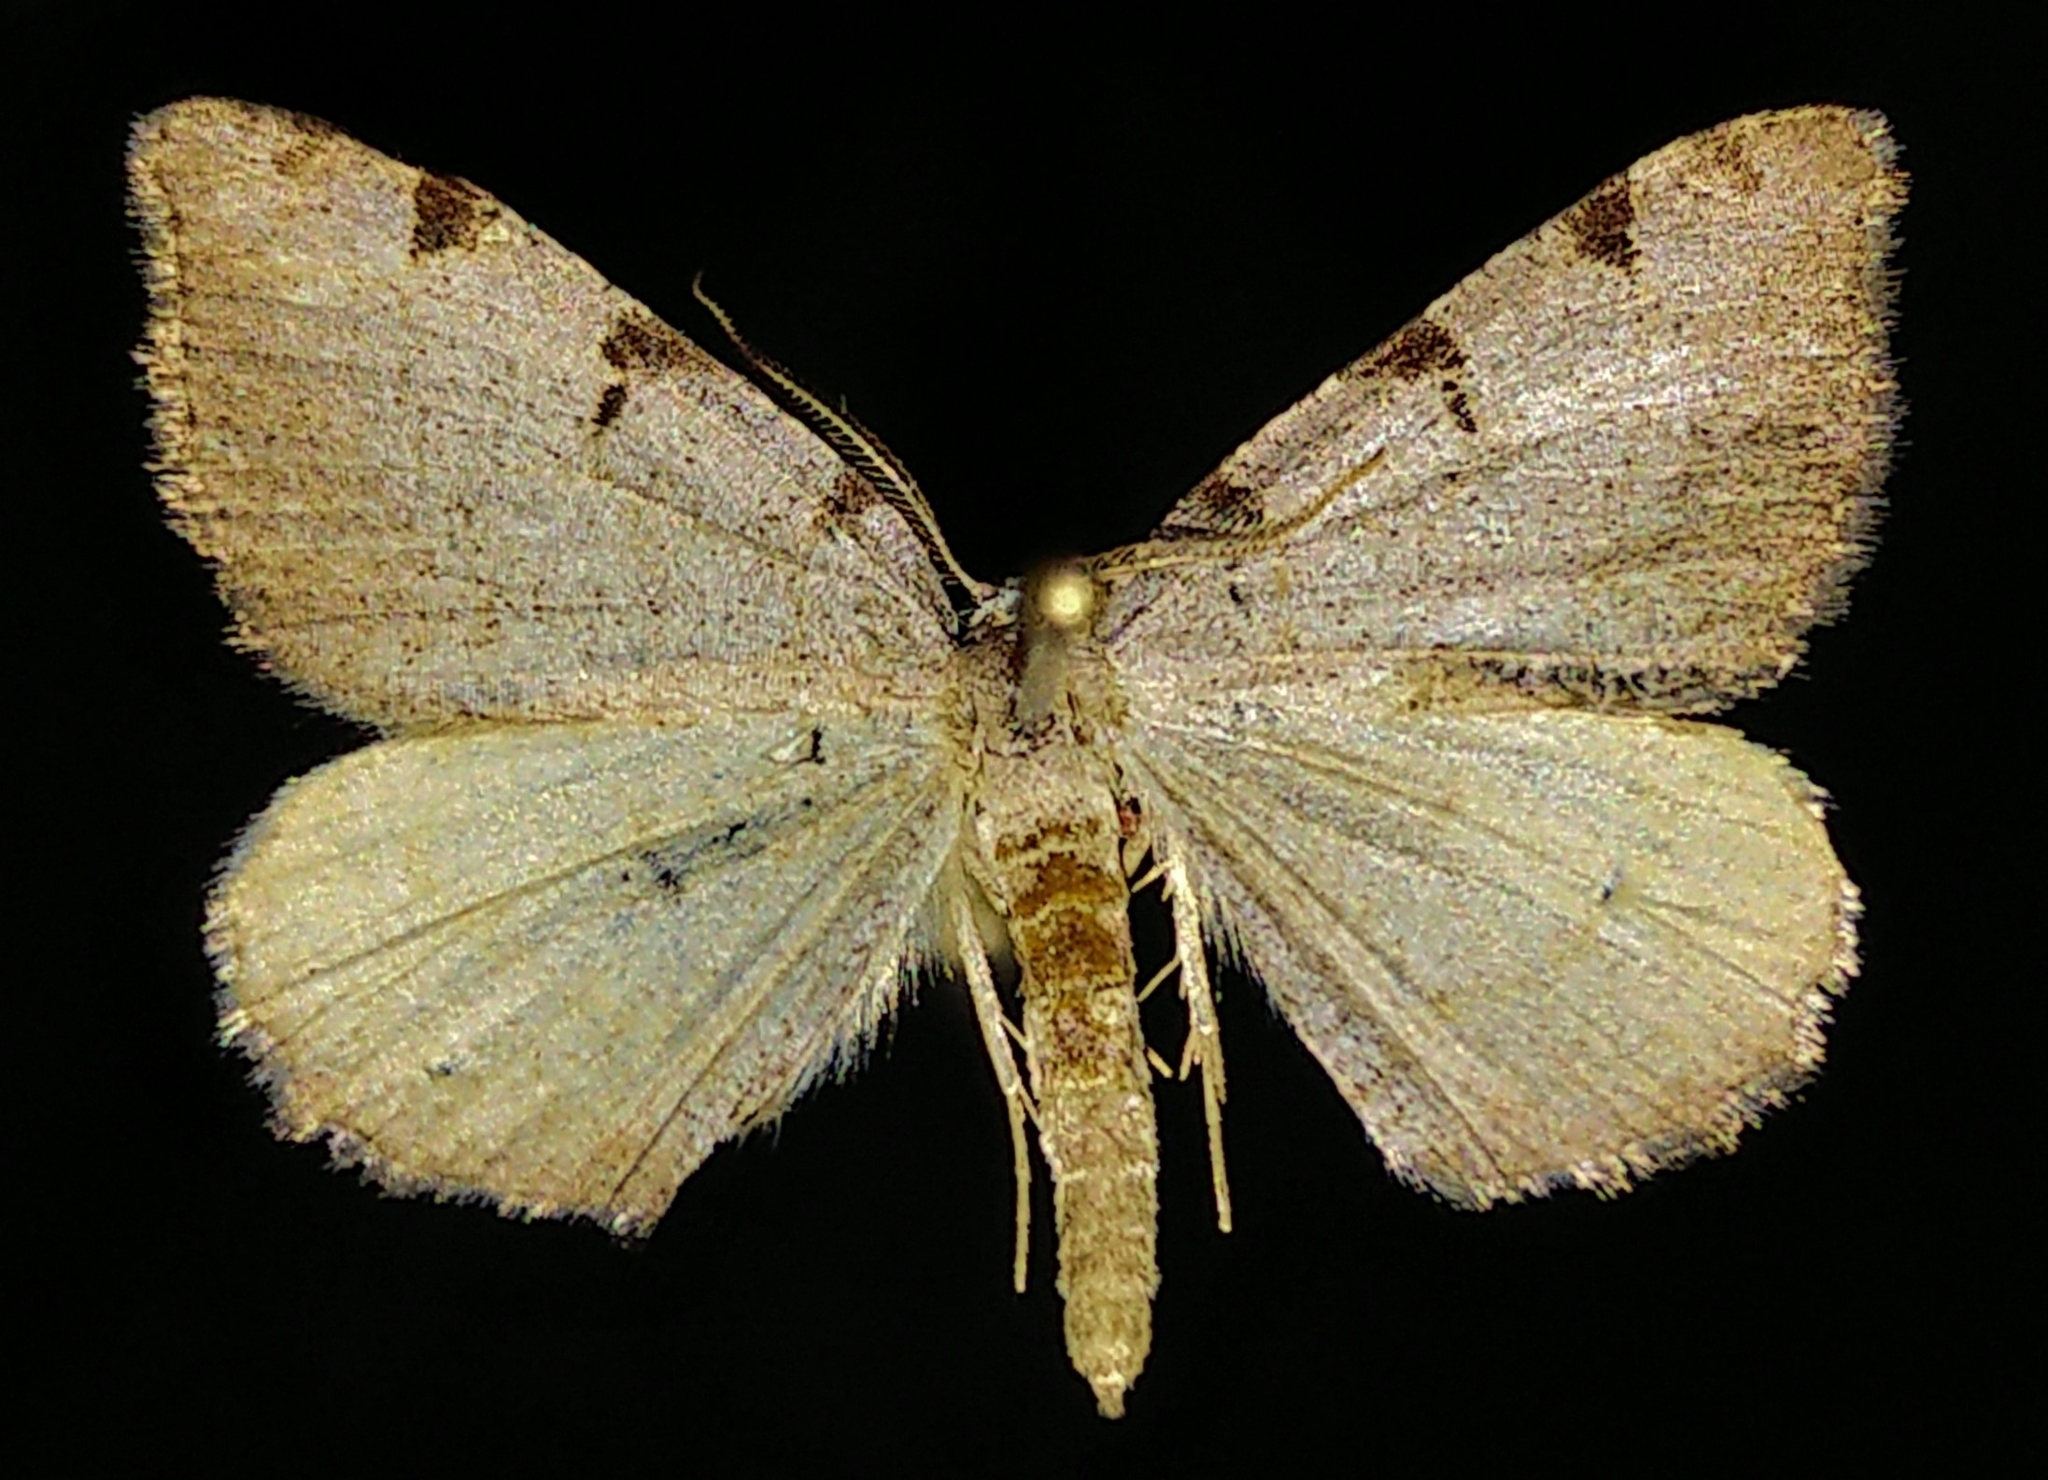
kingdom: Animalia
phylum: Arthropoda
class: Insecta
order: Lepidoptera
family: Geometridae
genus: Macaria
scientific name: Macaria coortaria
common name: Four-spotted granite
